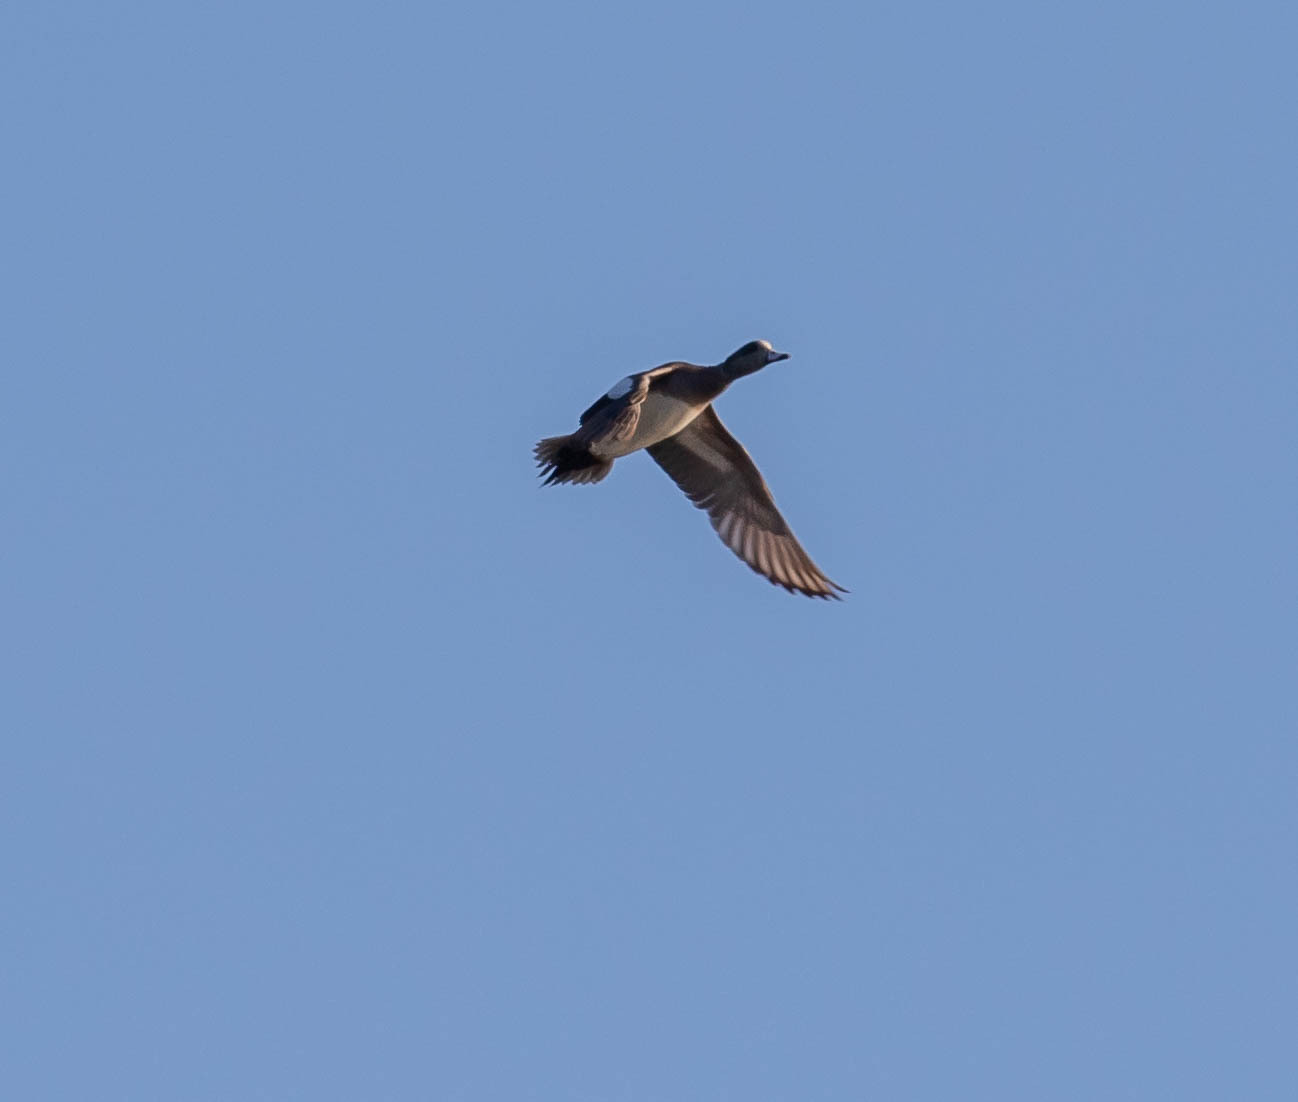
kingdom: Animalia
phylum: Chordata
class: Aves
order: Anseriformes
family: Anatidae
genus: Mareca
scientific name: Mareca americana
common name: American wigeon
